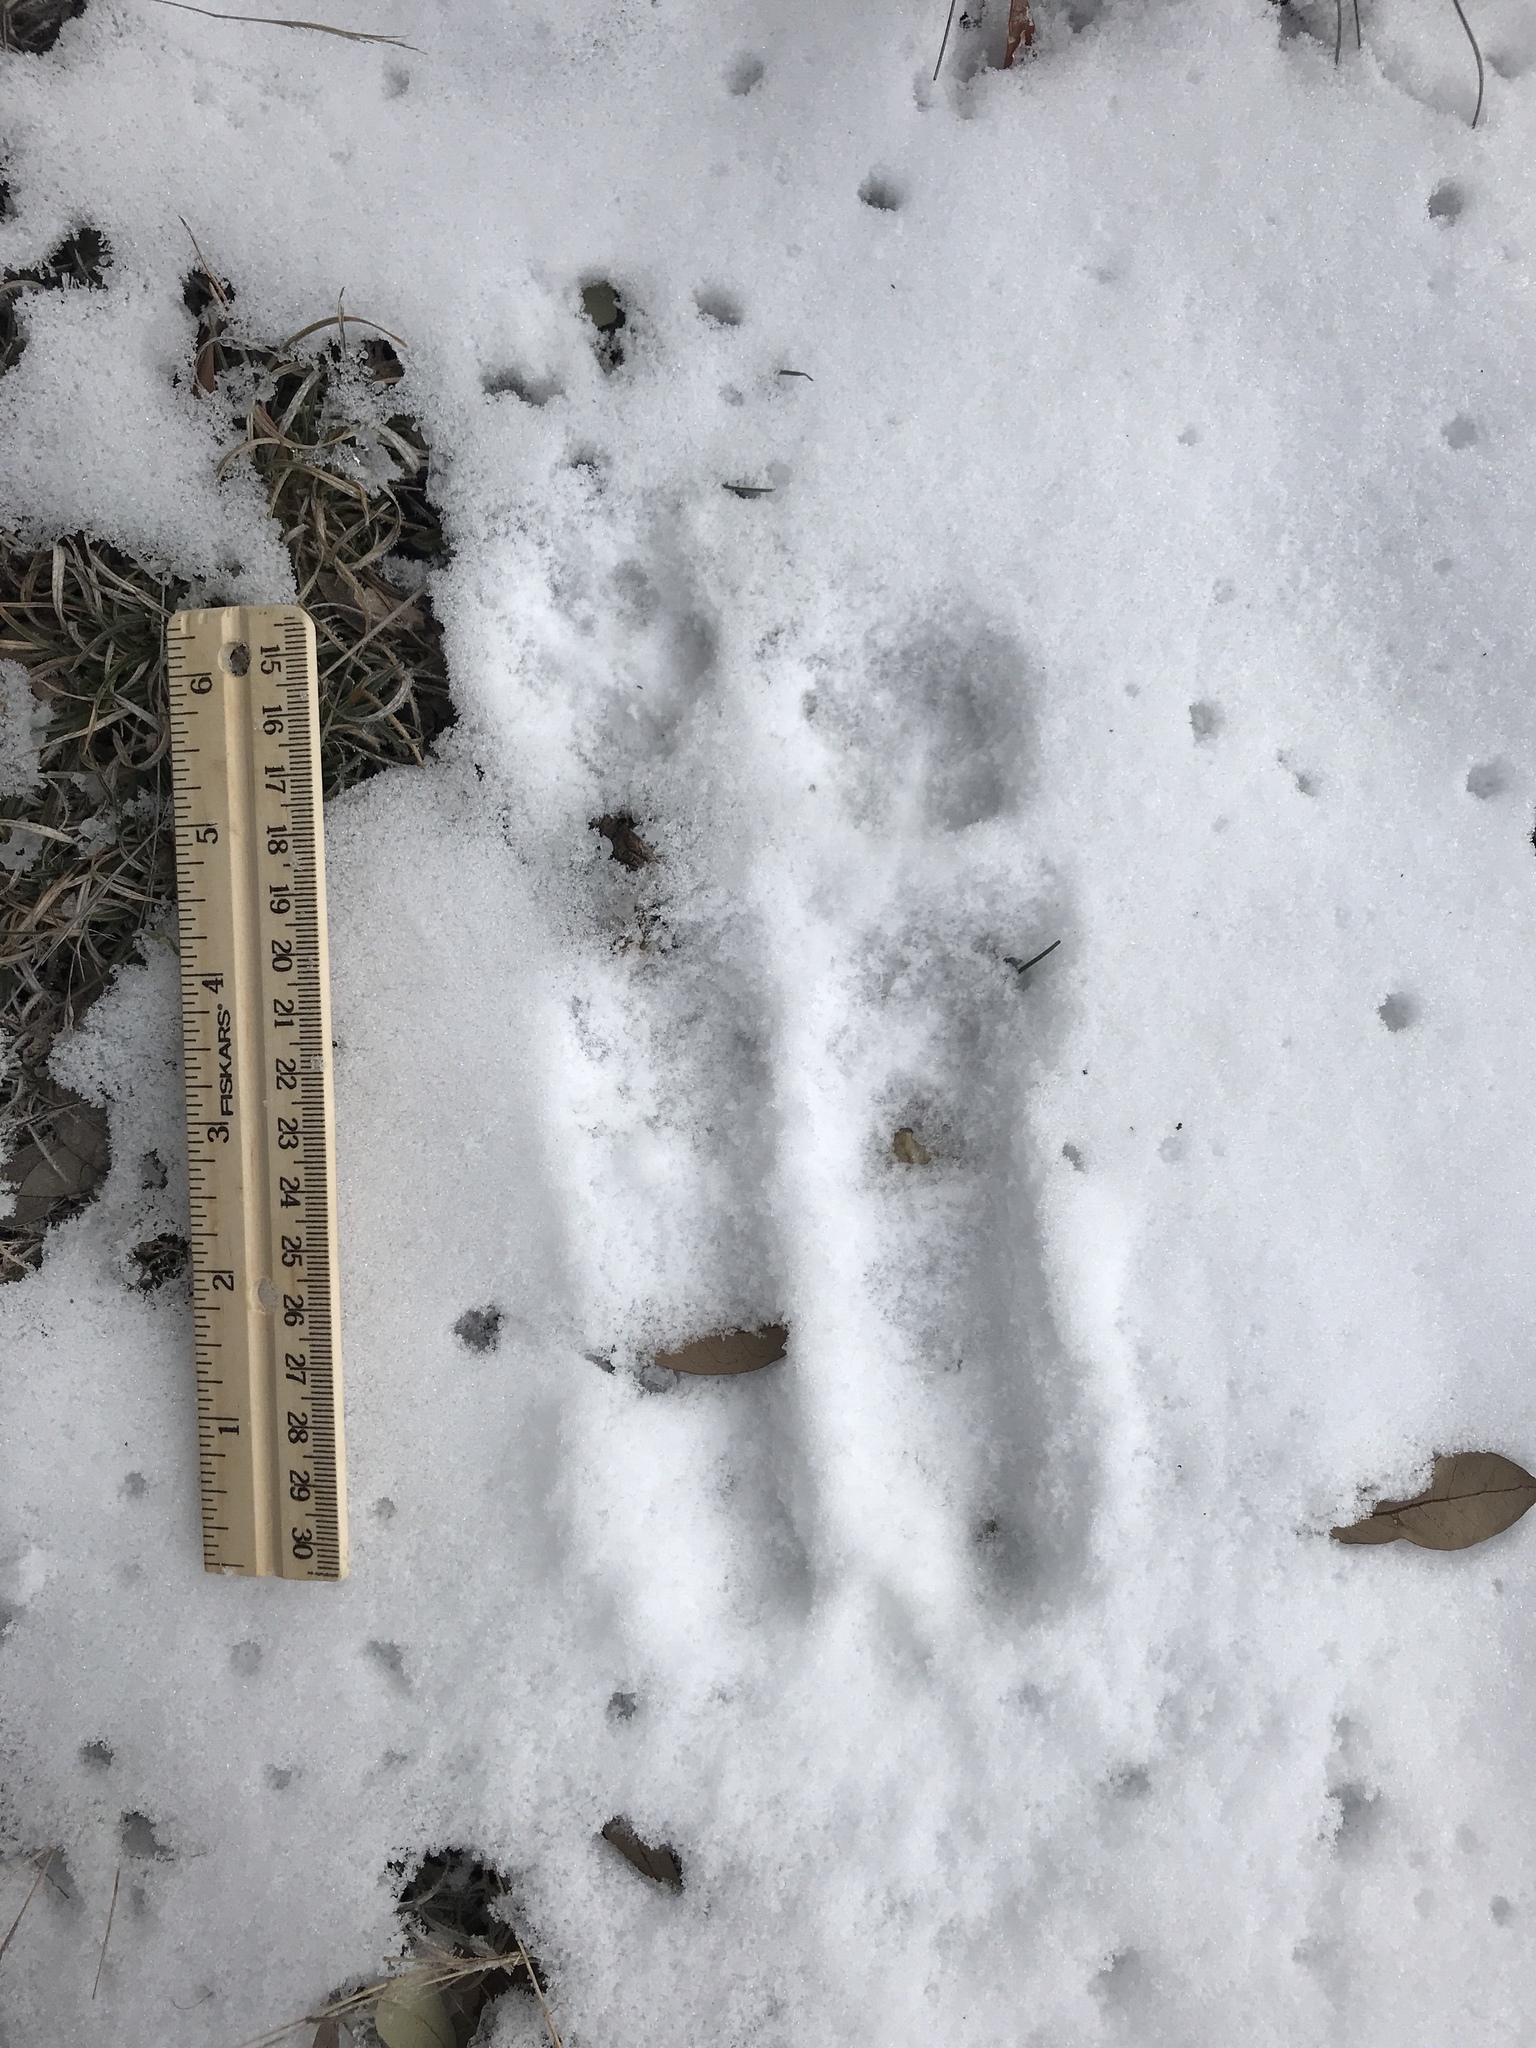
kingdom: Animalia
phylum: Chordata
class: Mammalia
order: Carnivora
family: Canidae
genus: Urocyon
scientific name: Urocyon cinereoargenteus
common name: Gray fox
